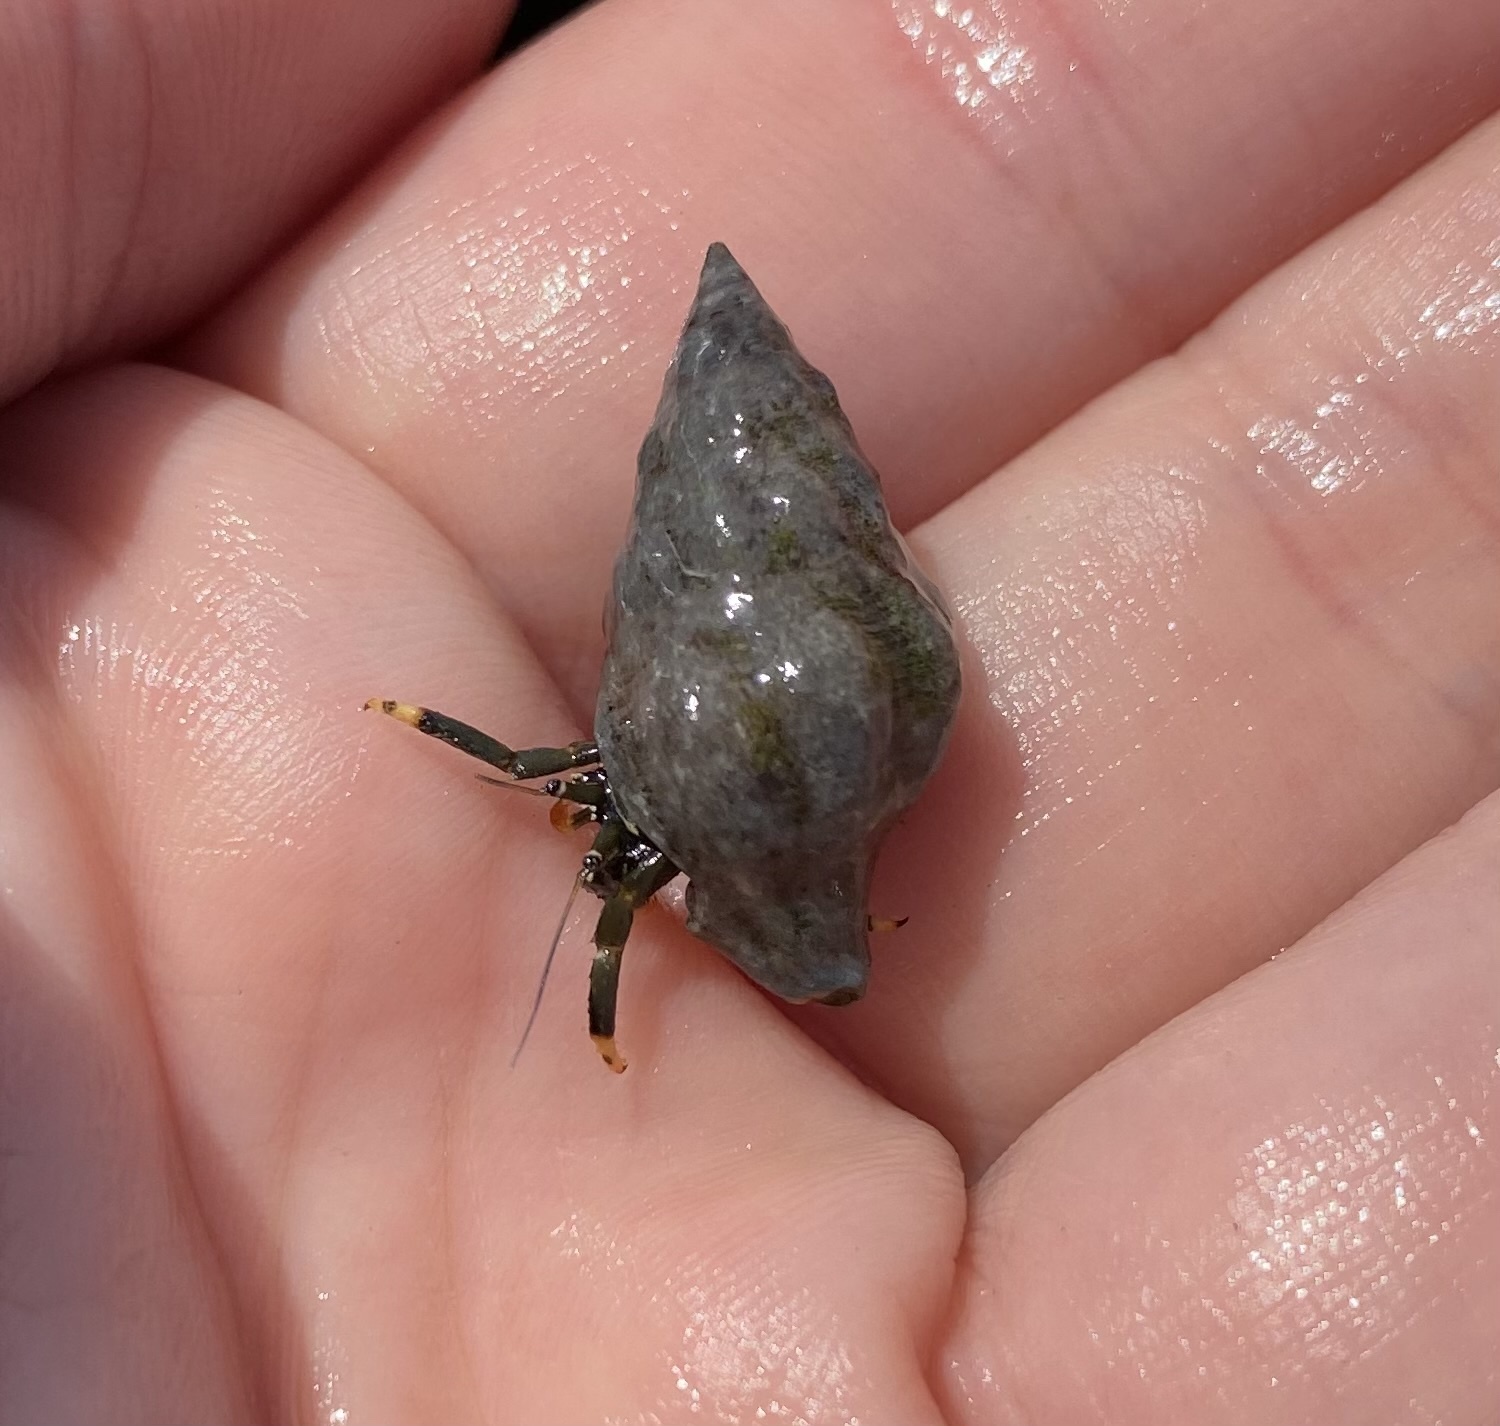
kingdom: Animalia
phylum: Arthropoda
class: Malacostraca
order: Decapoda
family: Diogenidae
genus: Clibanarius
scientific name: Clibanarius virescens
